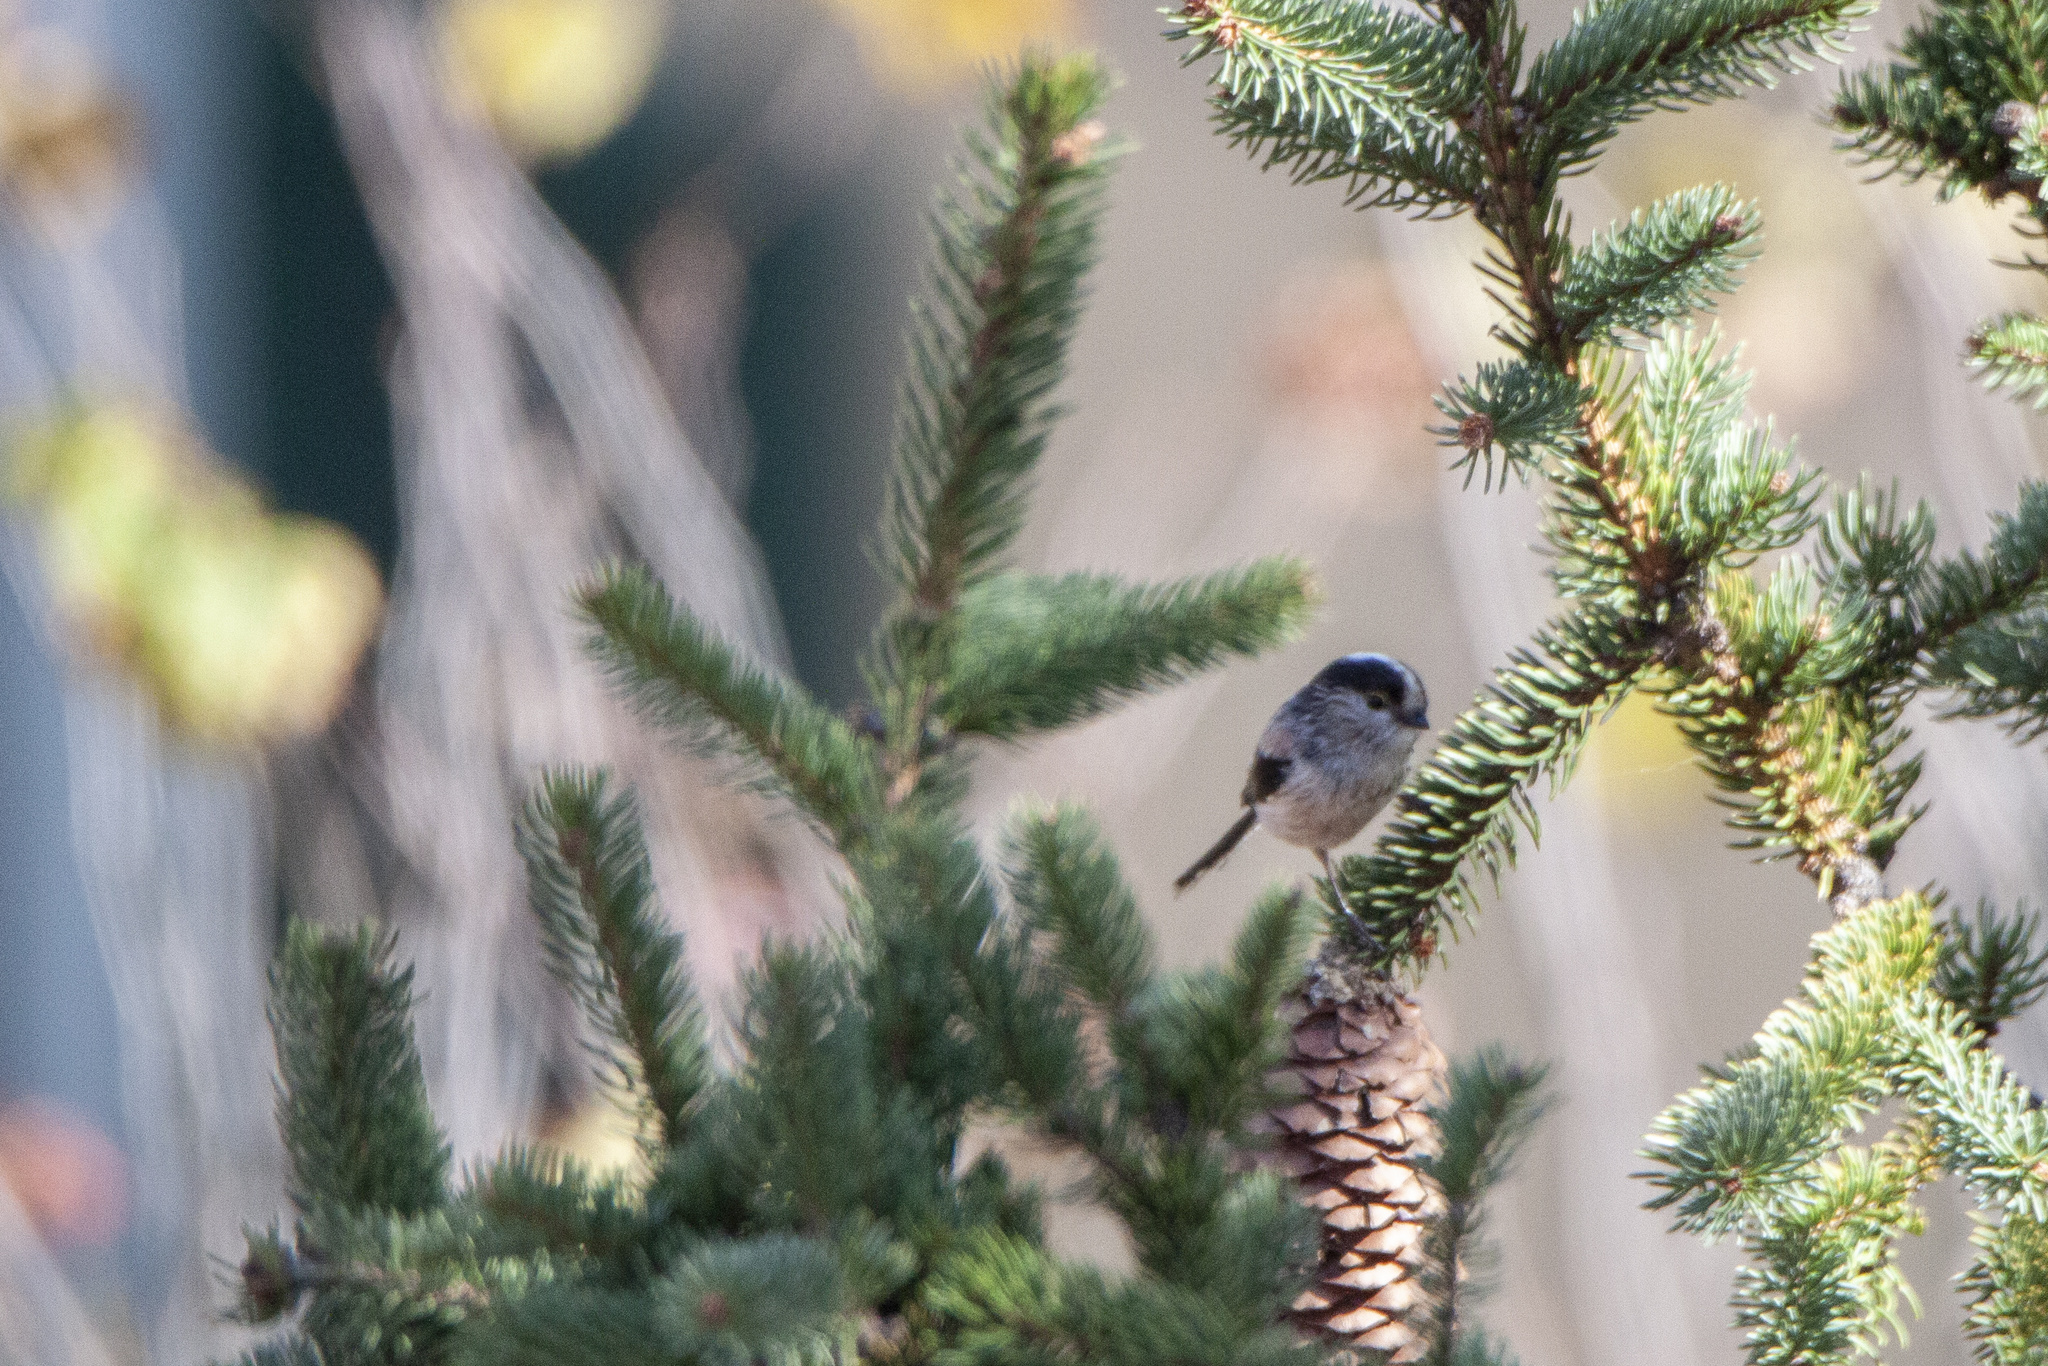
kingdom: Animalia
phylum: Chordata
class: Aves
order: Passeriformes
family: Aegithalidae
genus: Aegithalos
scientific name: Aegithalos caudatus
